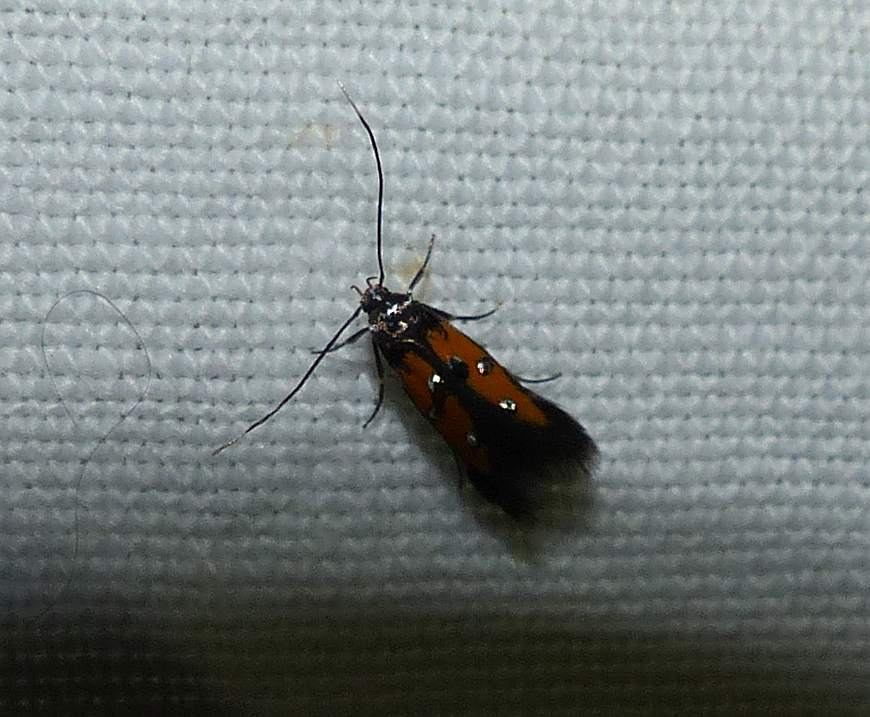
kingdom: Animalia
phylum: Arthropoda
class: Insecta
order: Lepidoptera
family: Elachistidae
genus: Chrysoclista
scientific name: Chrysoclista linneela
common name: Lime cosmet
